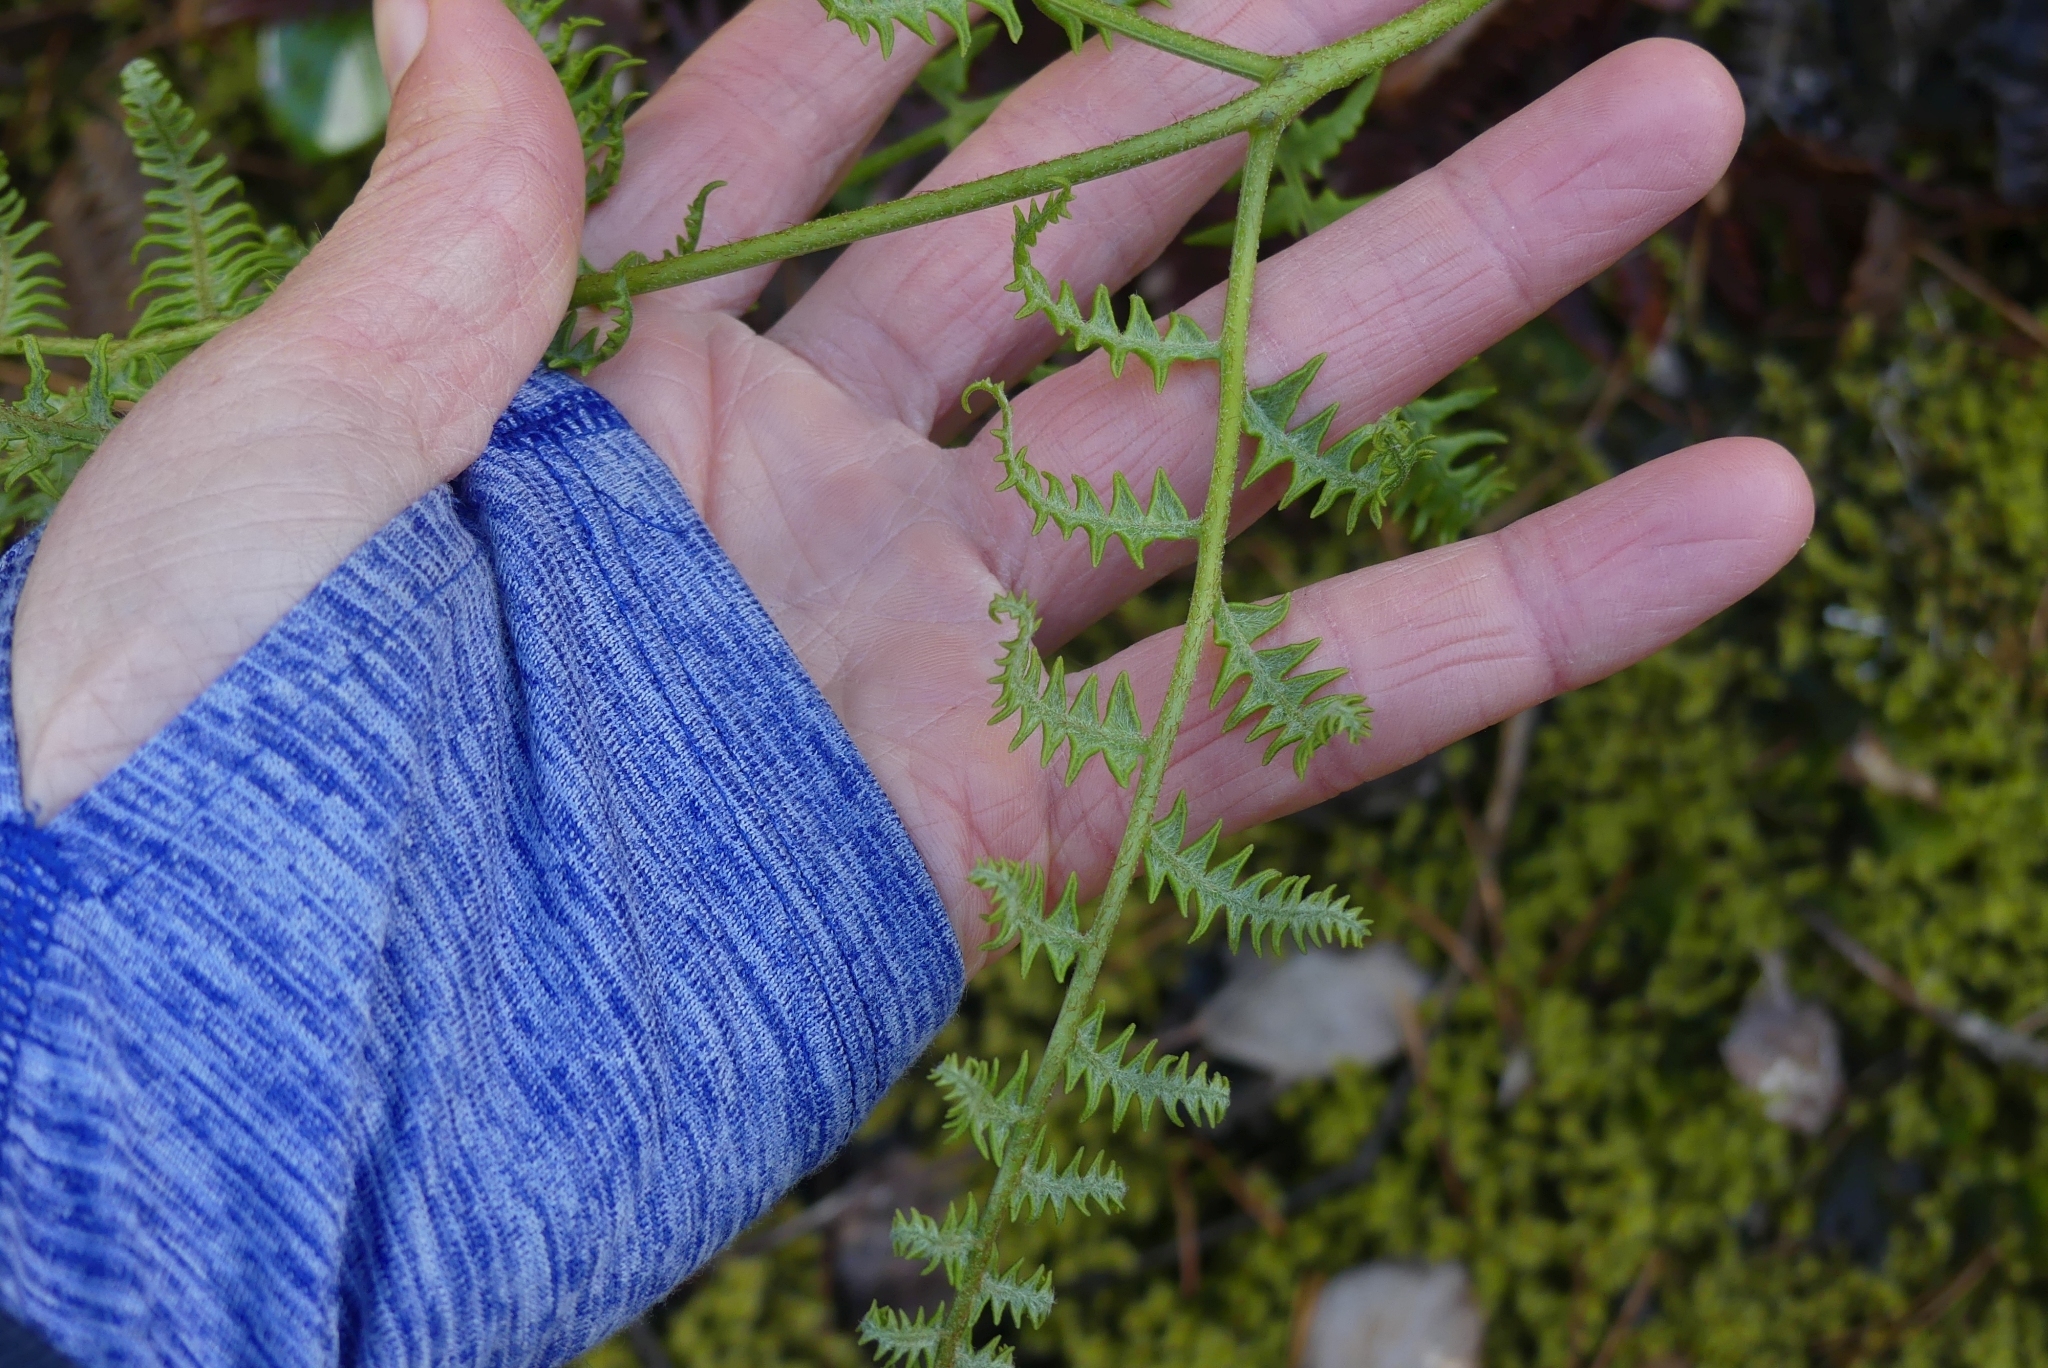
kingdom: Plantae
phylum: Tracheophyta
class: Polypodiopsida
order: Polypodiales
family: Dennstaedtiaceae
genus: Pteridium
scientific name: Pteridium aquilinum
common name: Bracken
